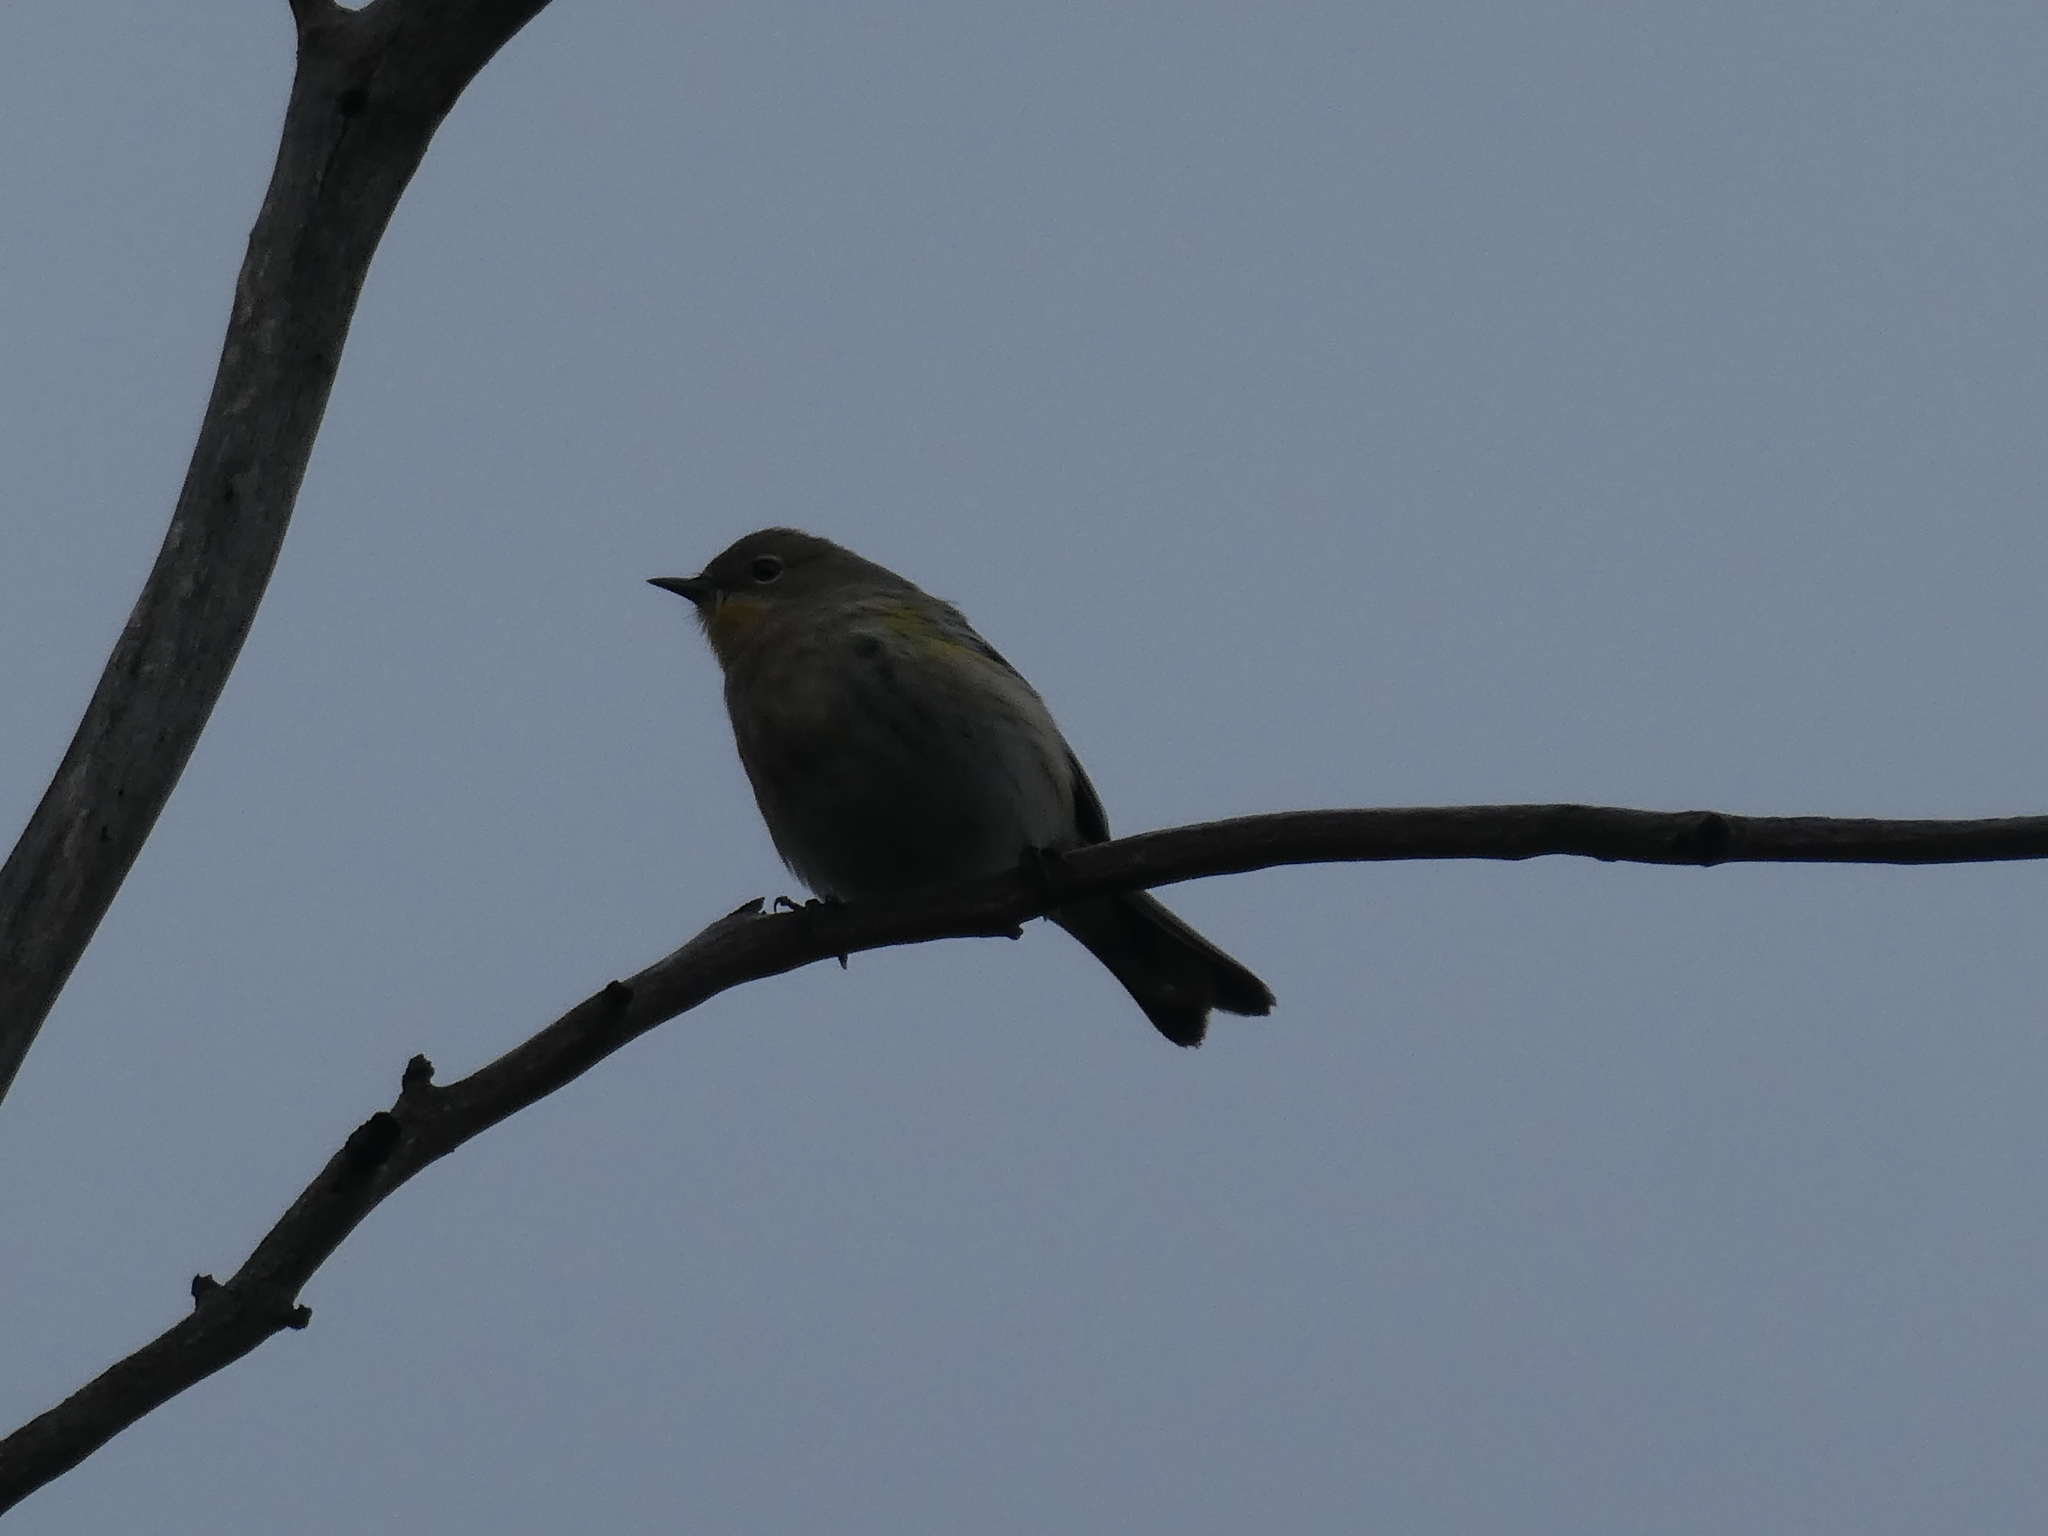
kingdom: Animalia
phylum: Chordata
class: Aves
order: Passeriformes
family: Parulidae
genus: Setophaga
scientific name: Setophaga coronata
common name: Myrtle warbler
